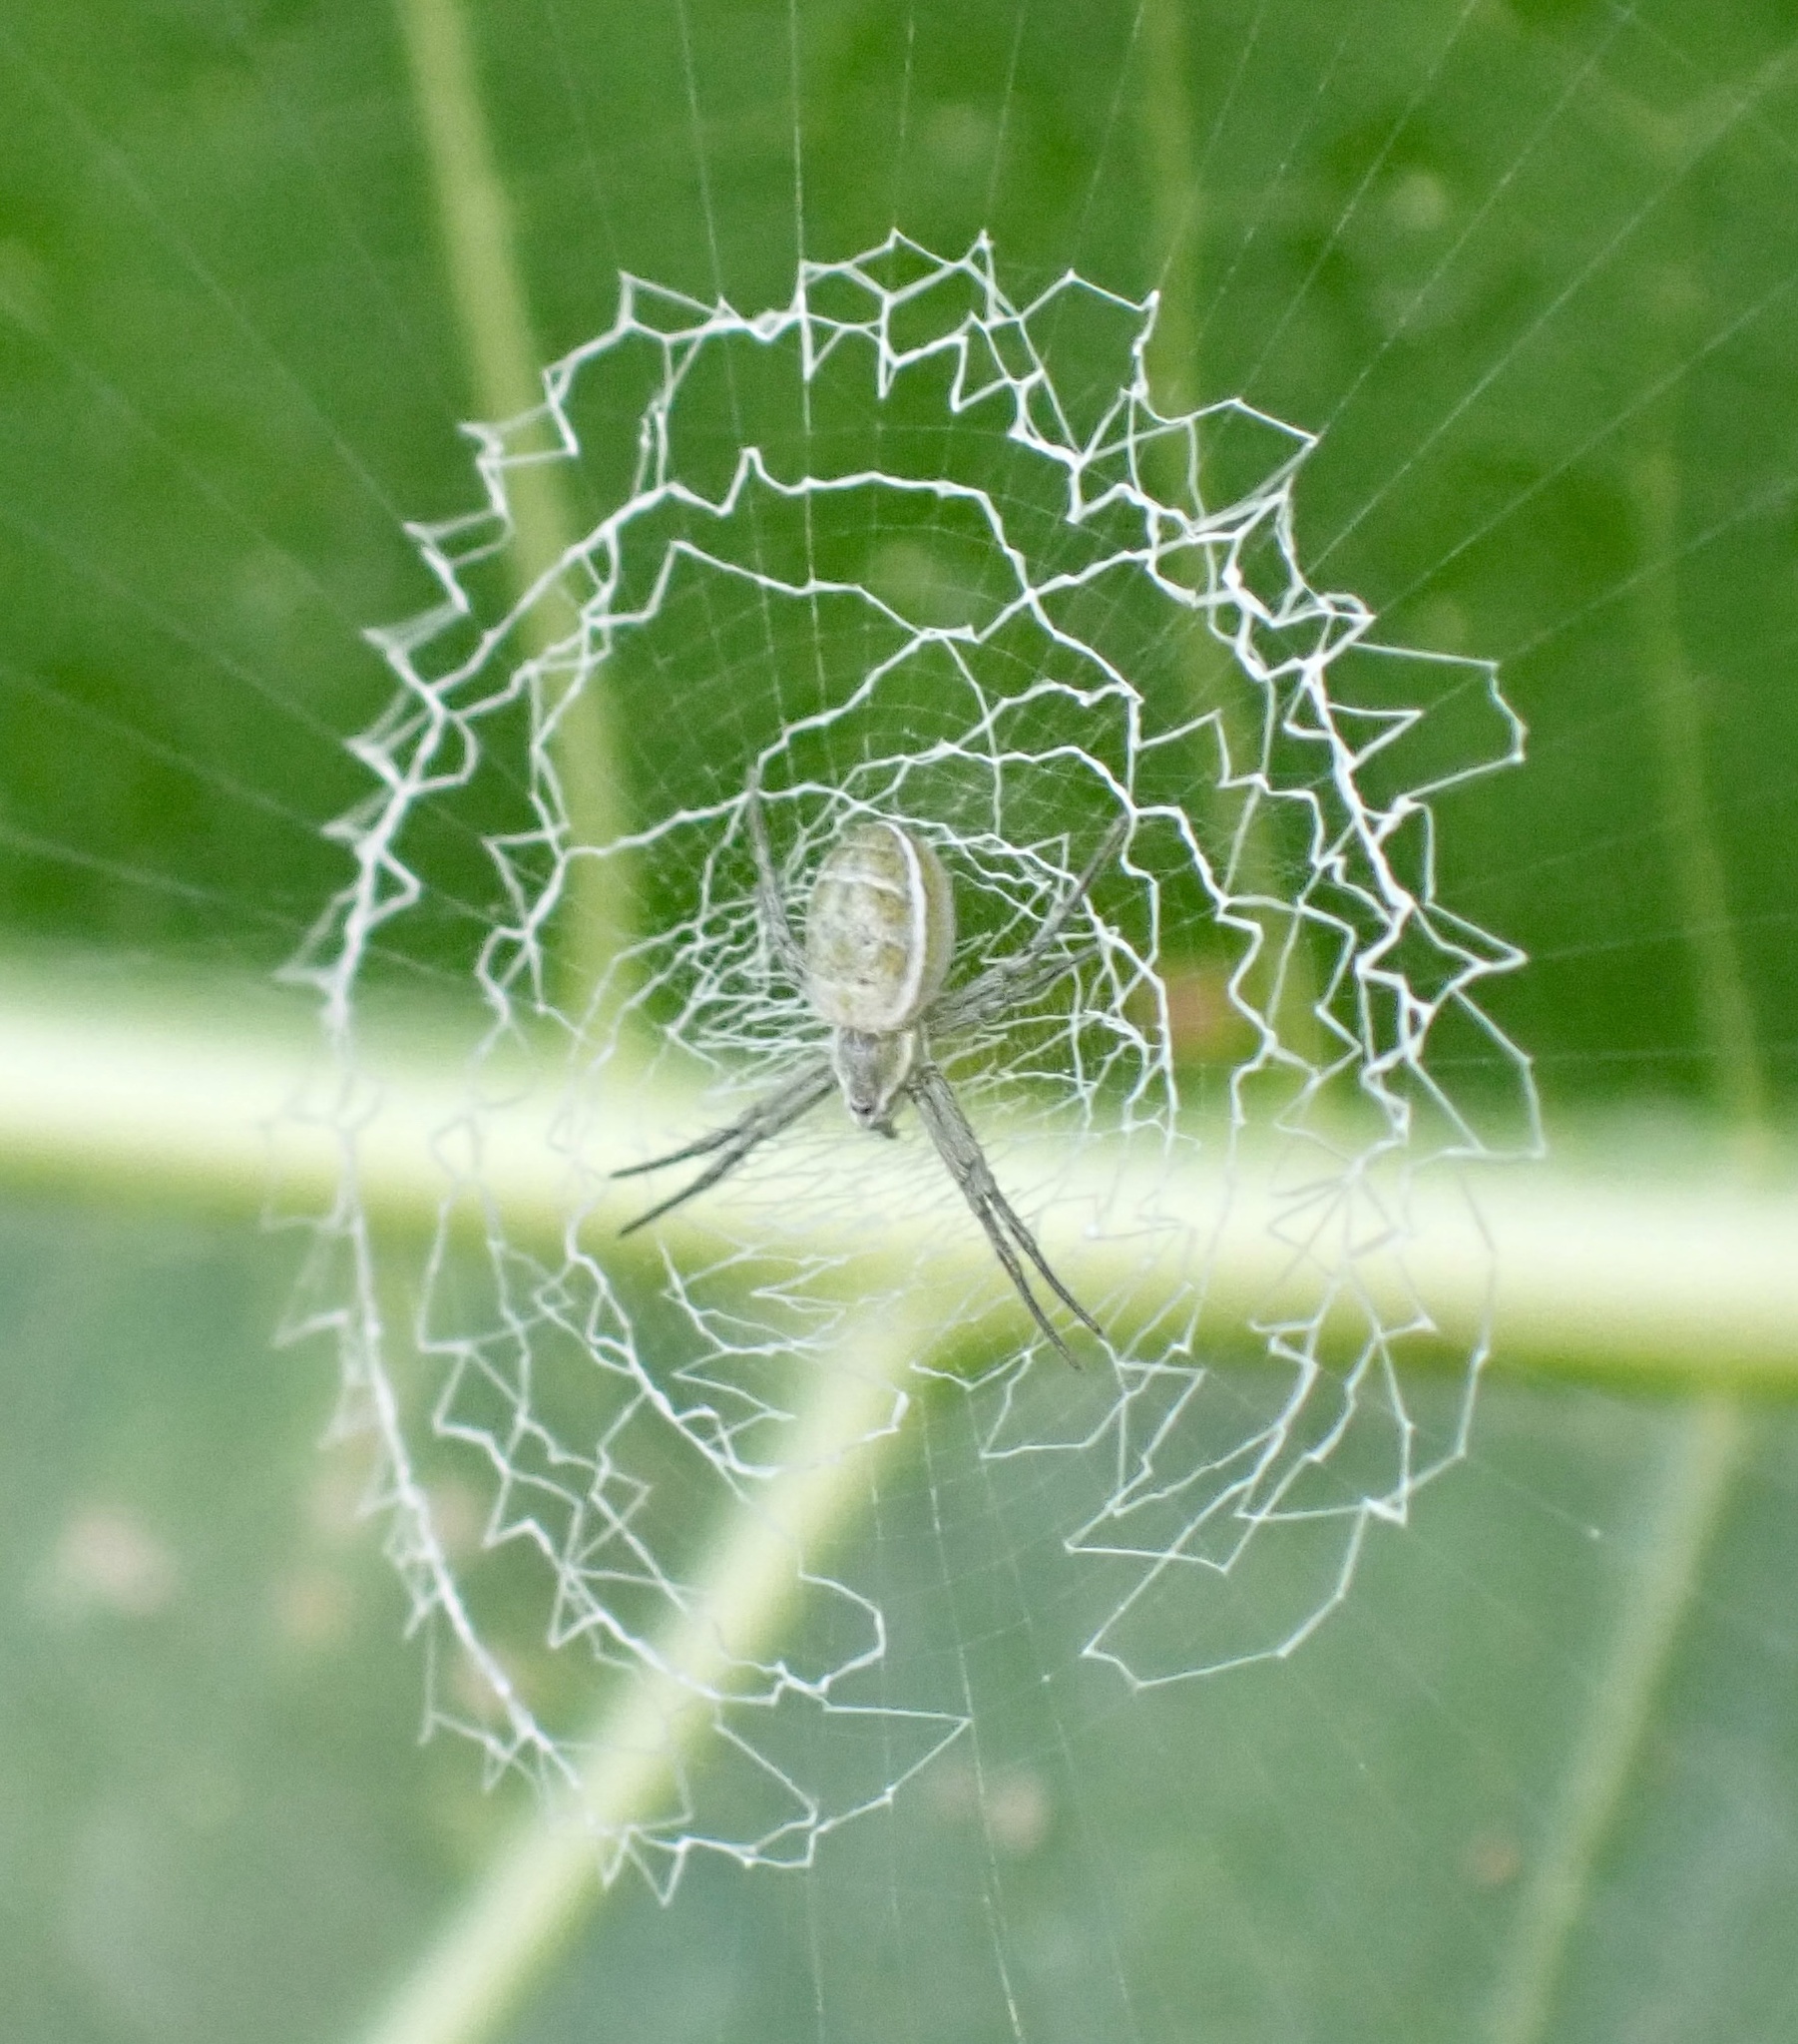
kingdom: Animalia
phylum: Arthropoda
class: Arachnida
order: Araneae
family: Araneidae
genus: Argiope
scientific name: Argiope chloreides
